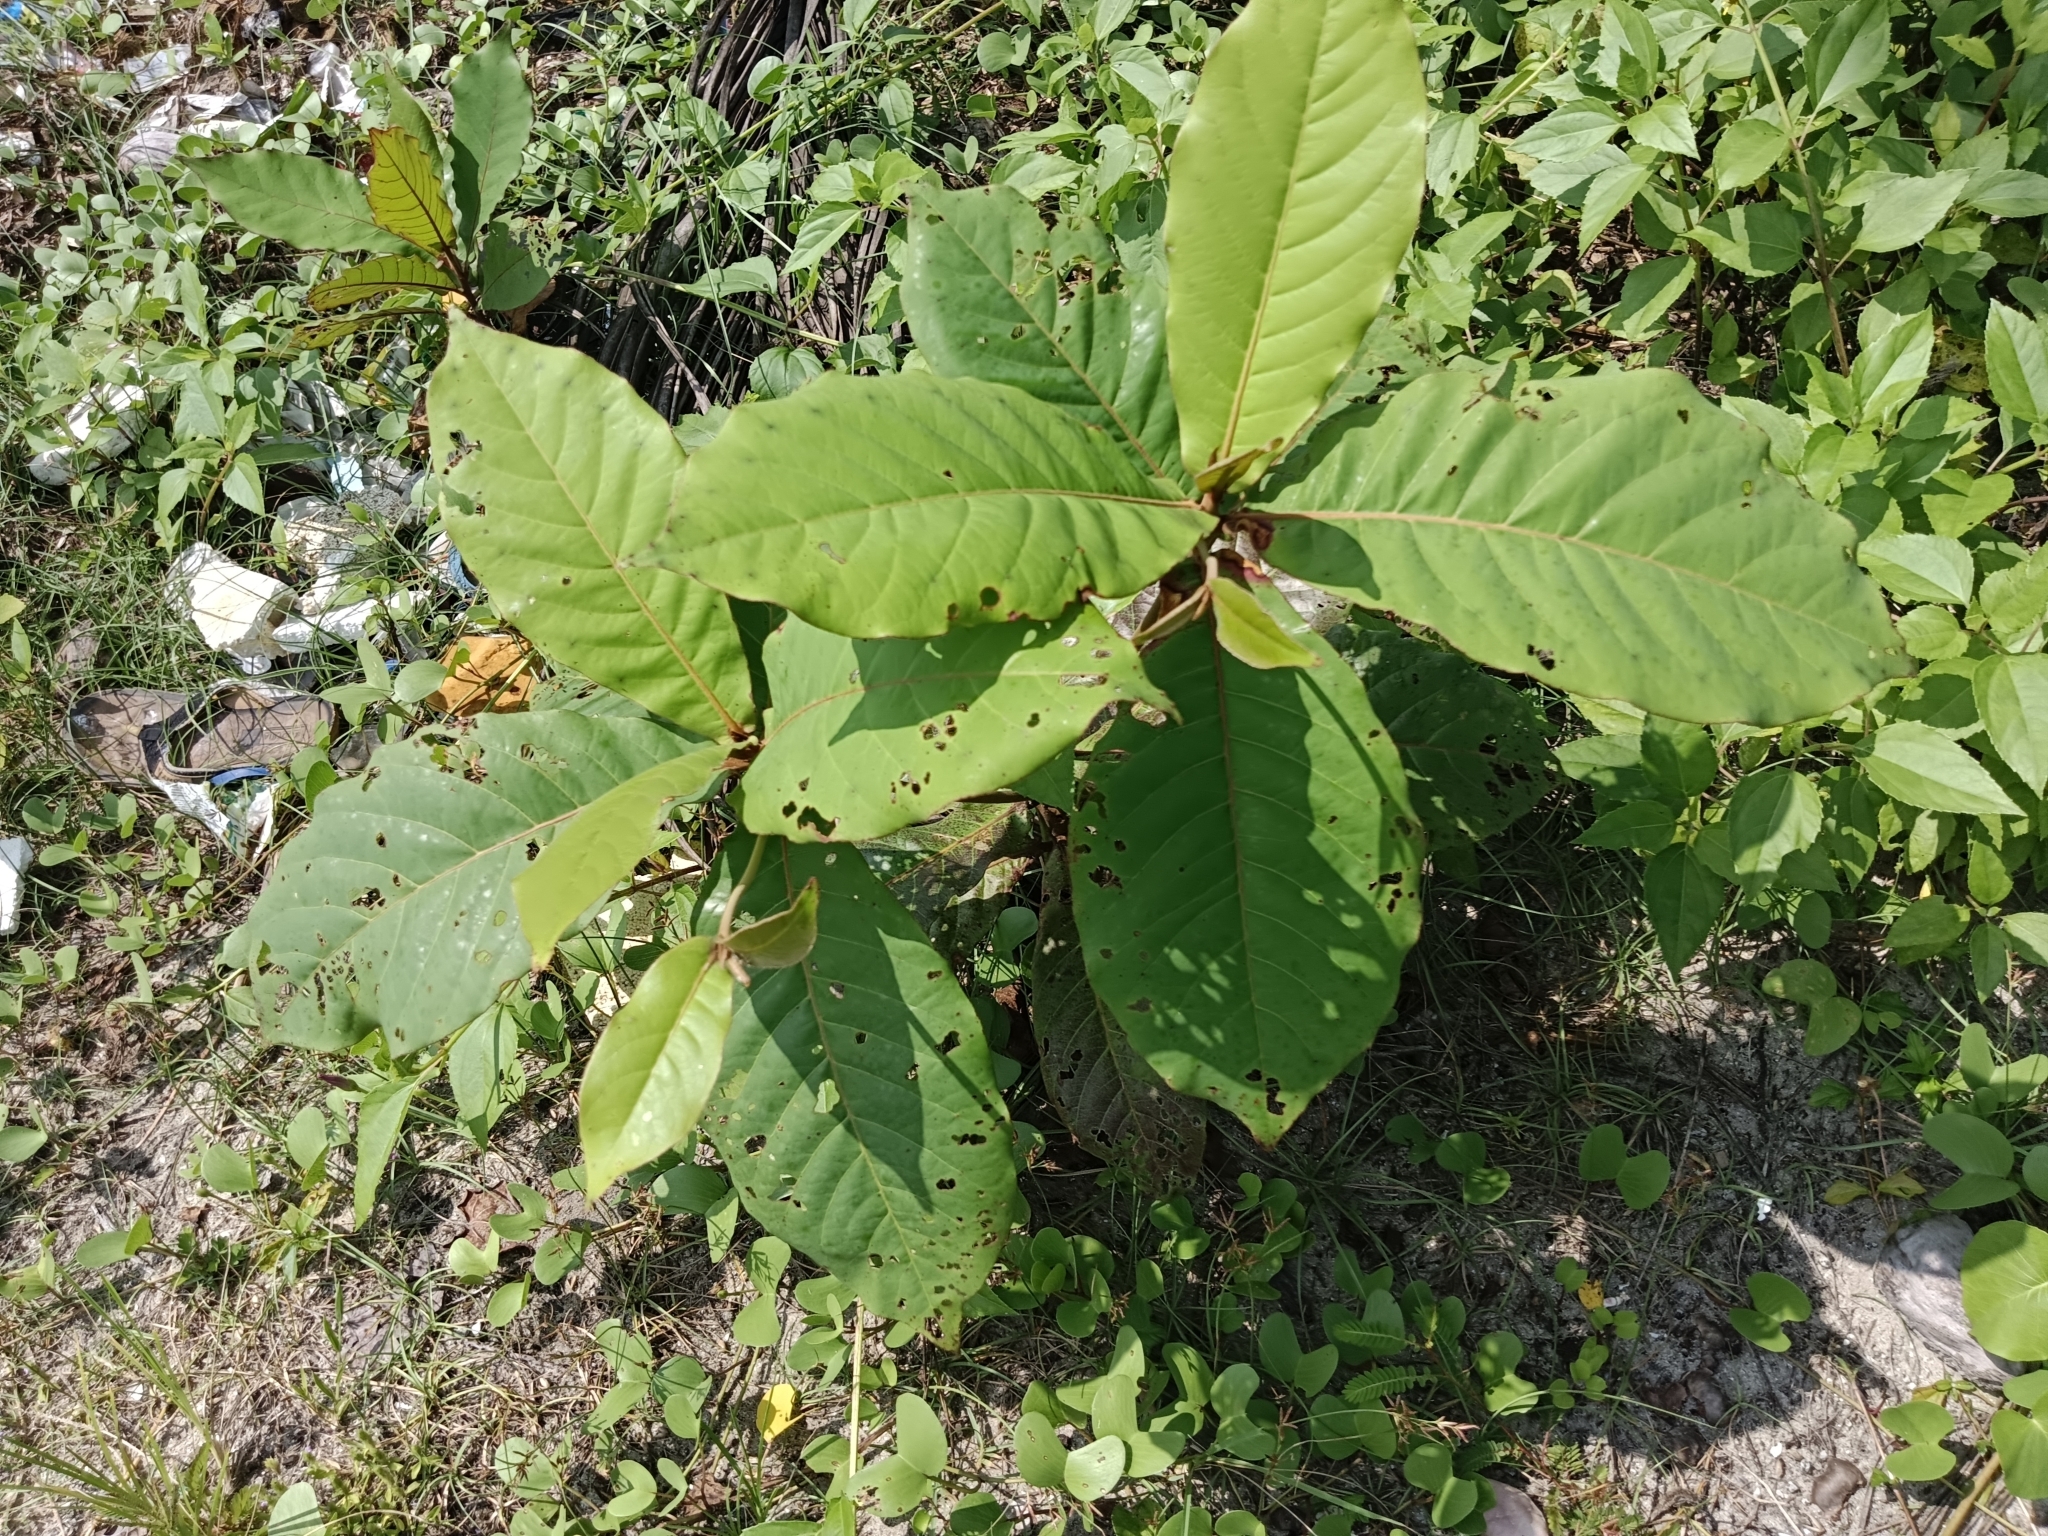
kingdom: Plantae
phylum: Tracheophyta
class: Magnoliopsida
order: Myrtales
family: Combretaceae
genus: Terminalia
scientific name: Terminalia catappa
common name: Tropical almond
